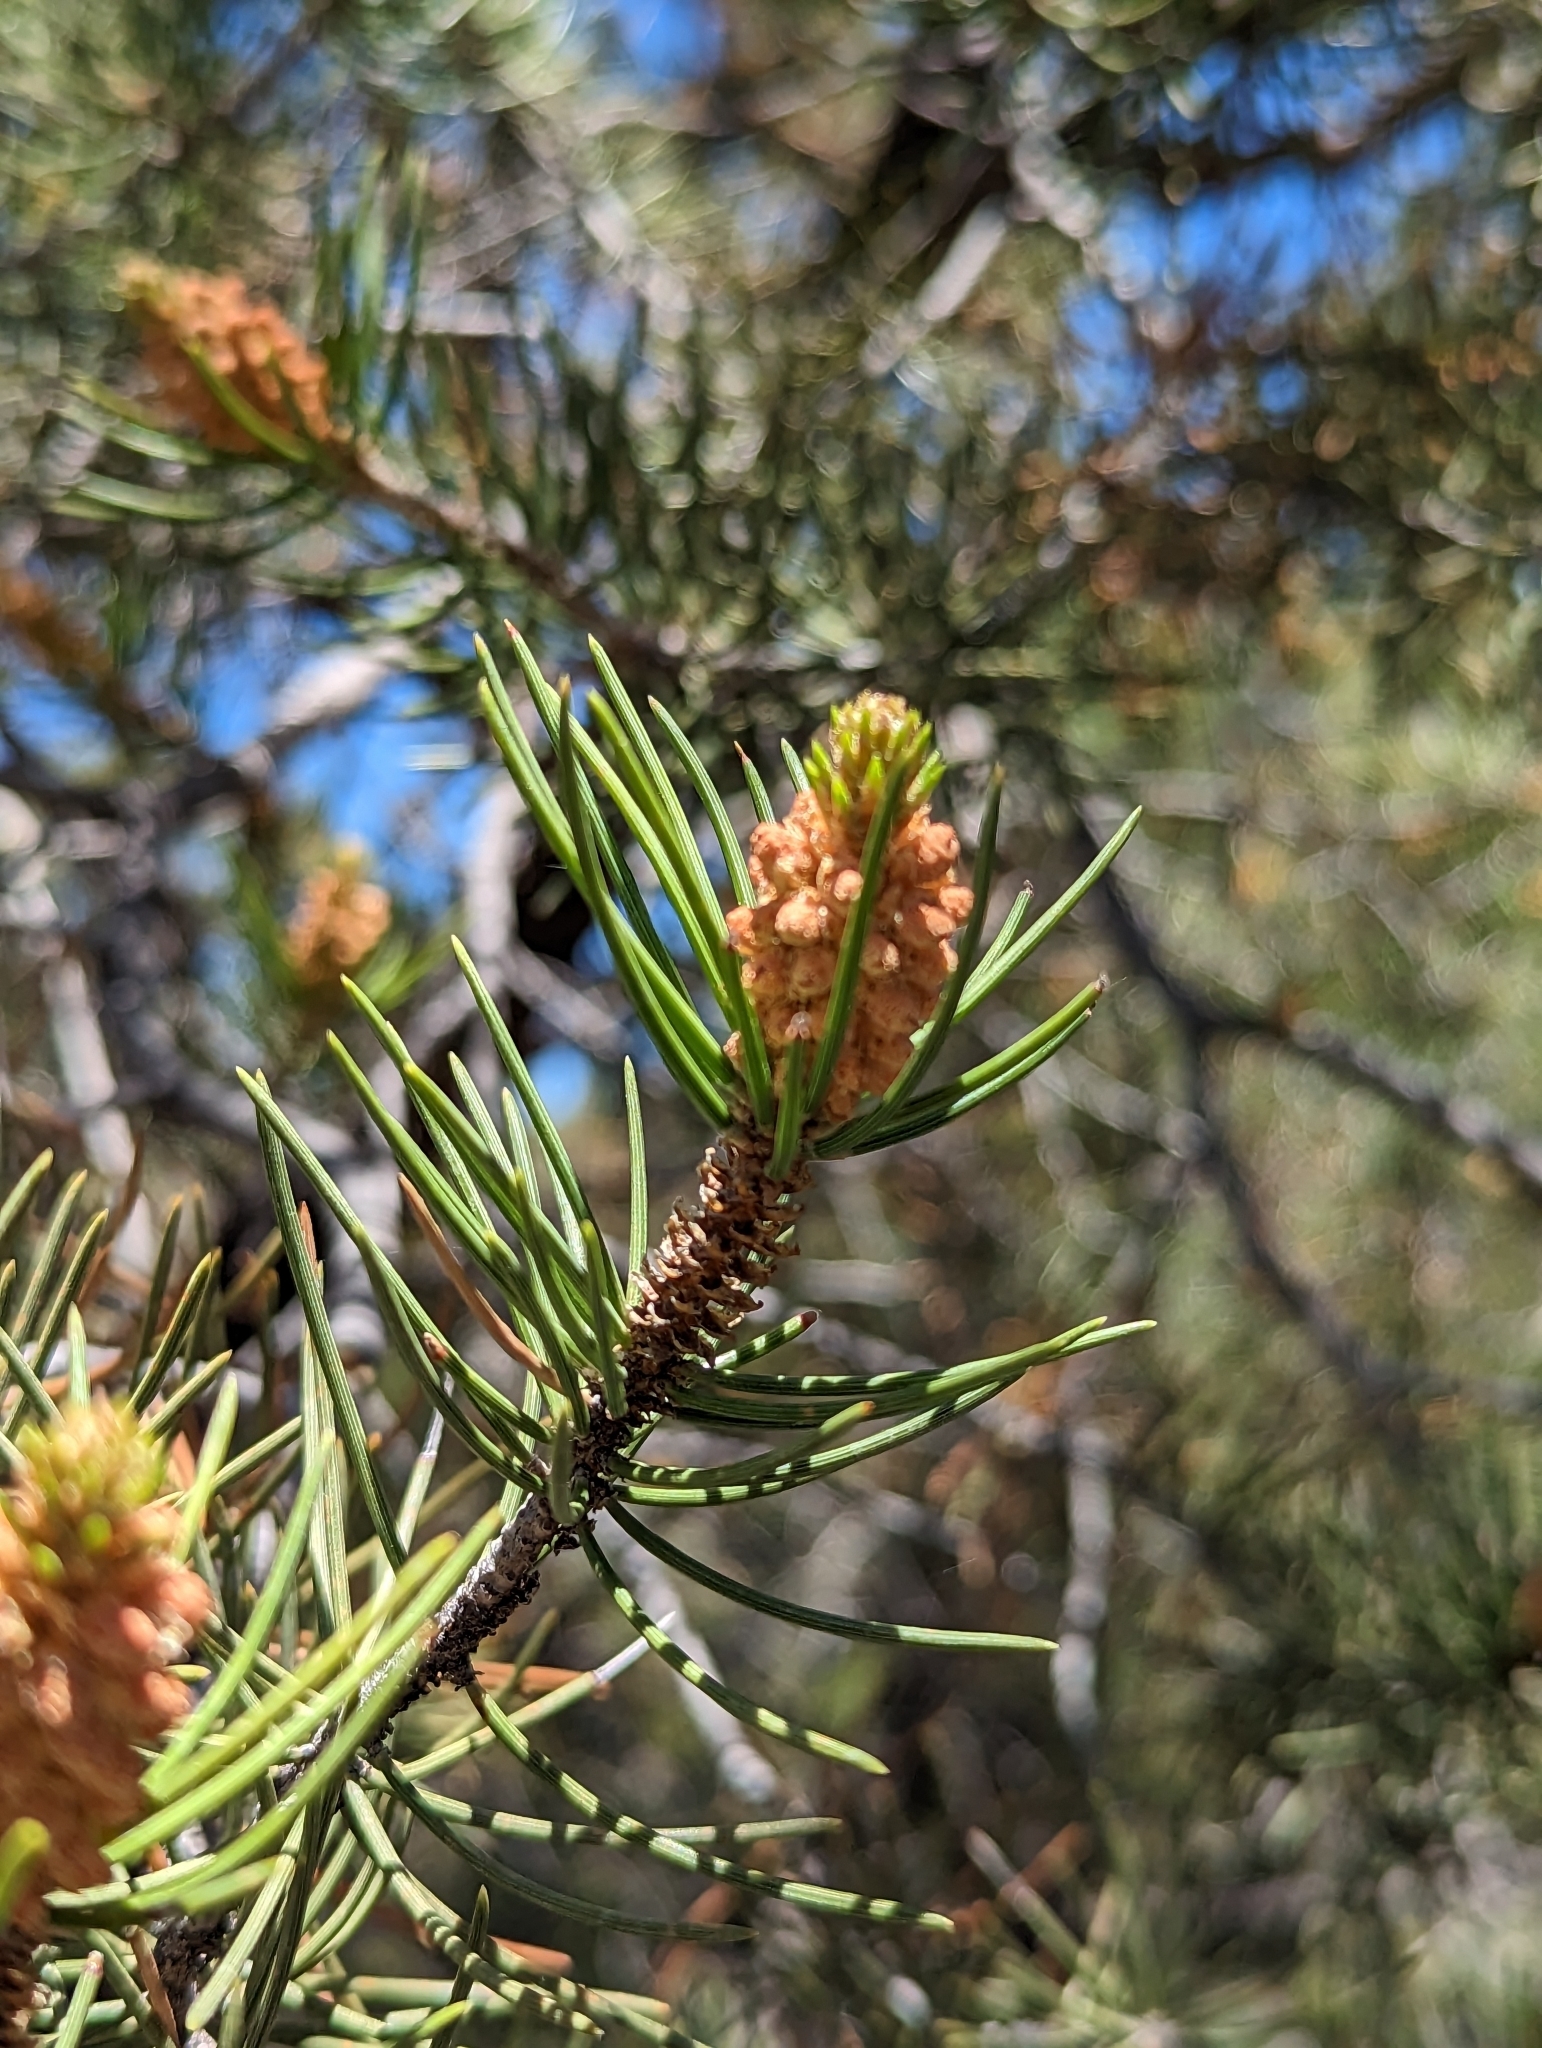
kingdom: Plantae
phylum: Tracheophyta
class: Pinopsida
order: Pinales
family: Pinaceae
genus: Pinus
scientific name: Pinus monophylla
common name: One-leaved nut pine
